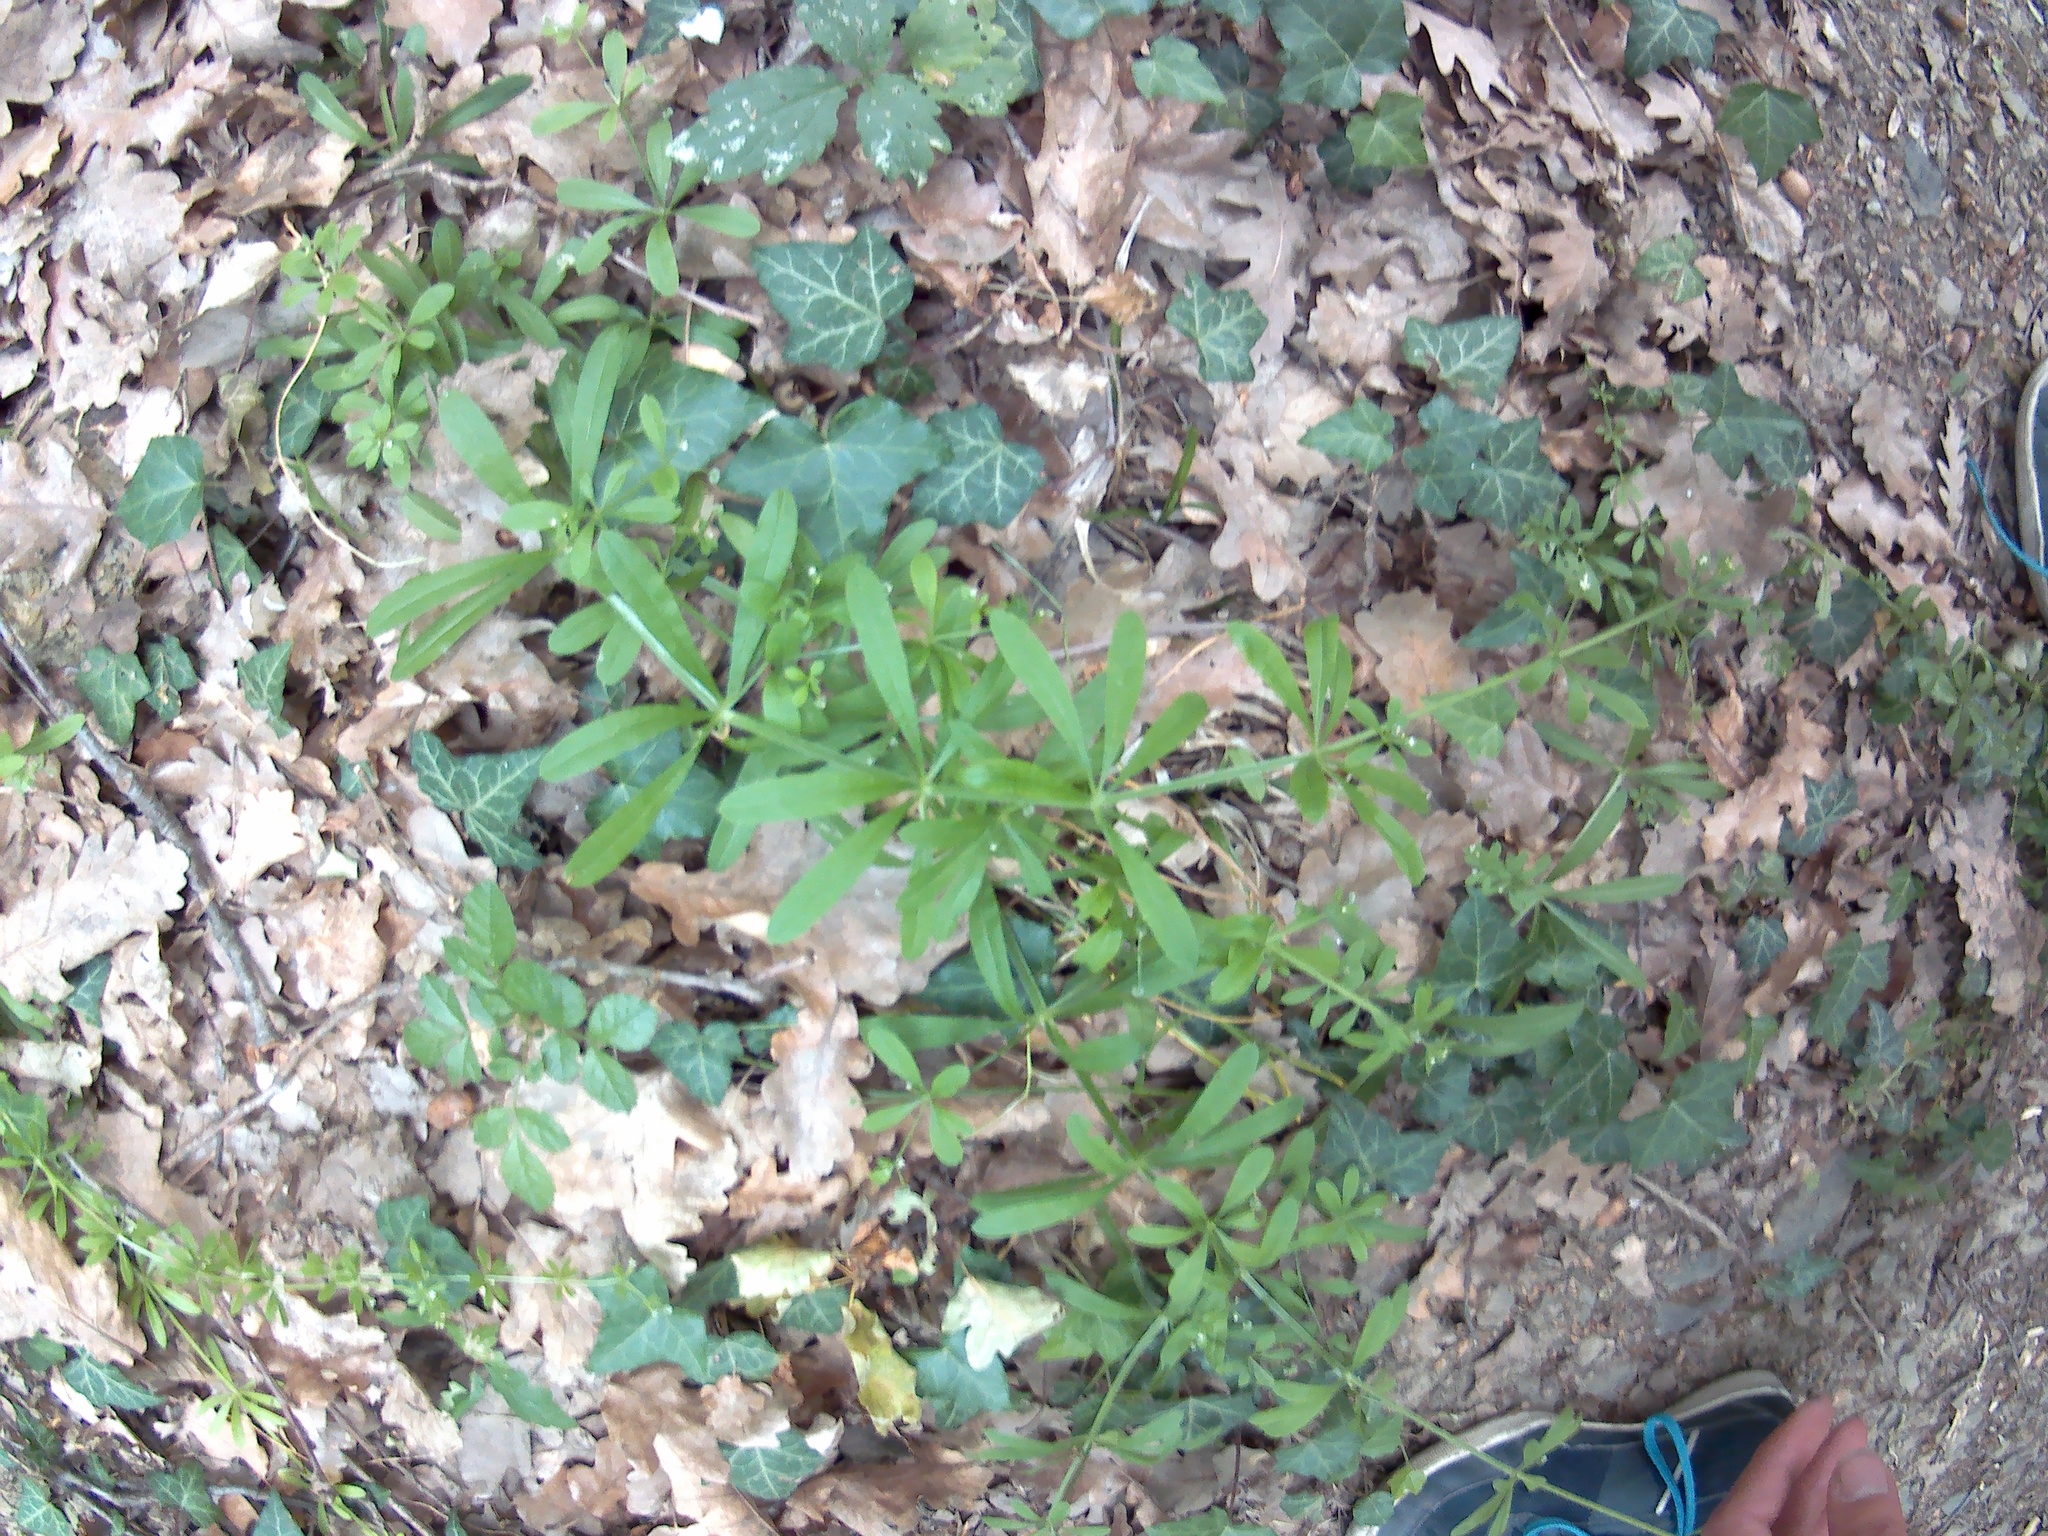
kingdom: Plantae
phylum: Tracheophyta
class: Magnoliopsida
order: Gentianales
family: Rubiaceae
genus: Galium
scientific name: Galium aparine
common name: Cleavers
